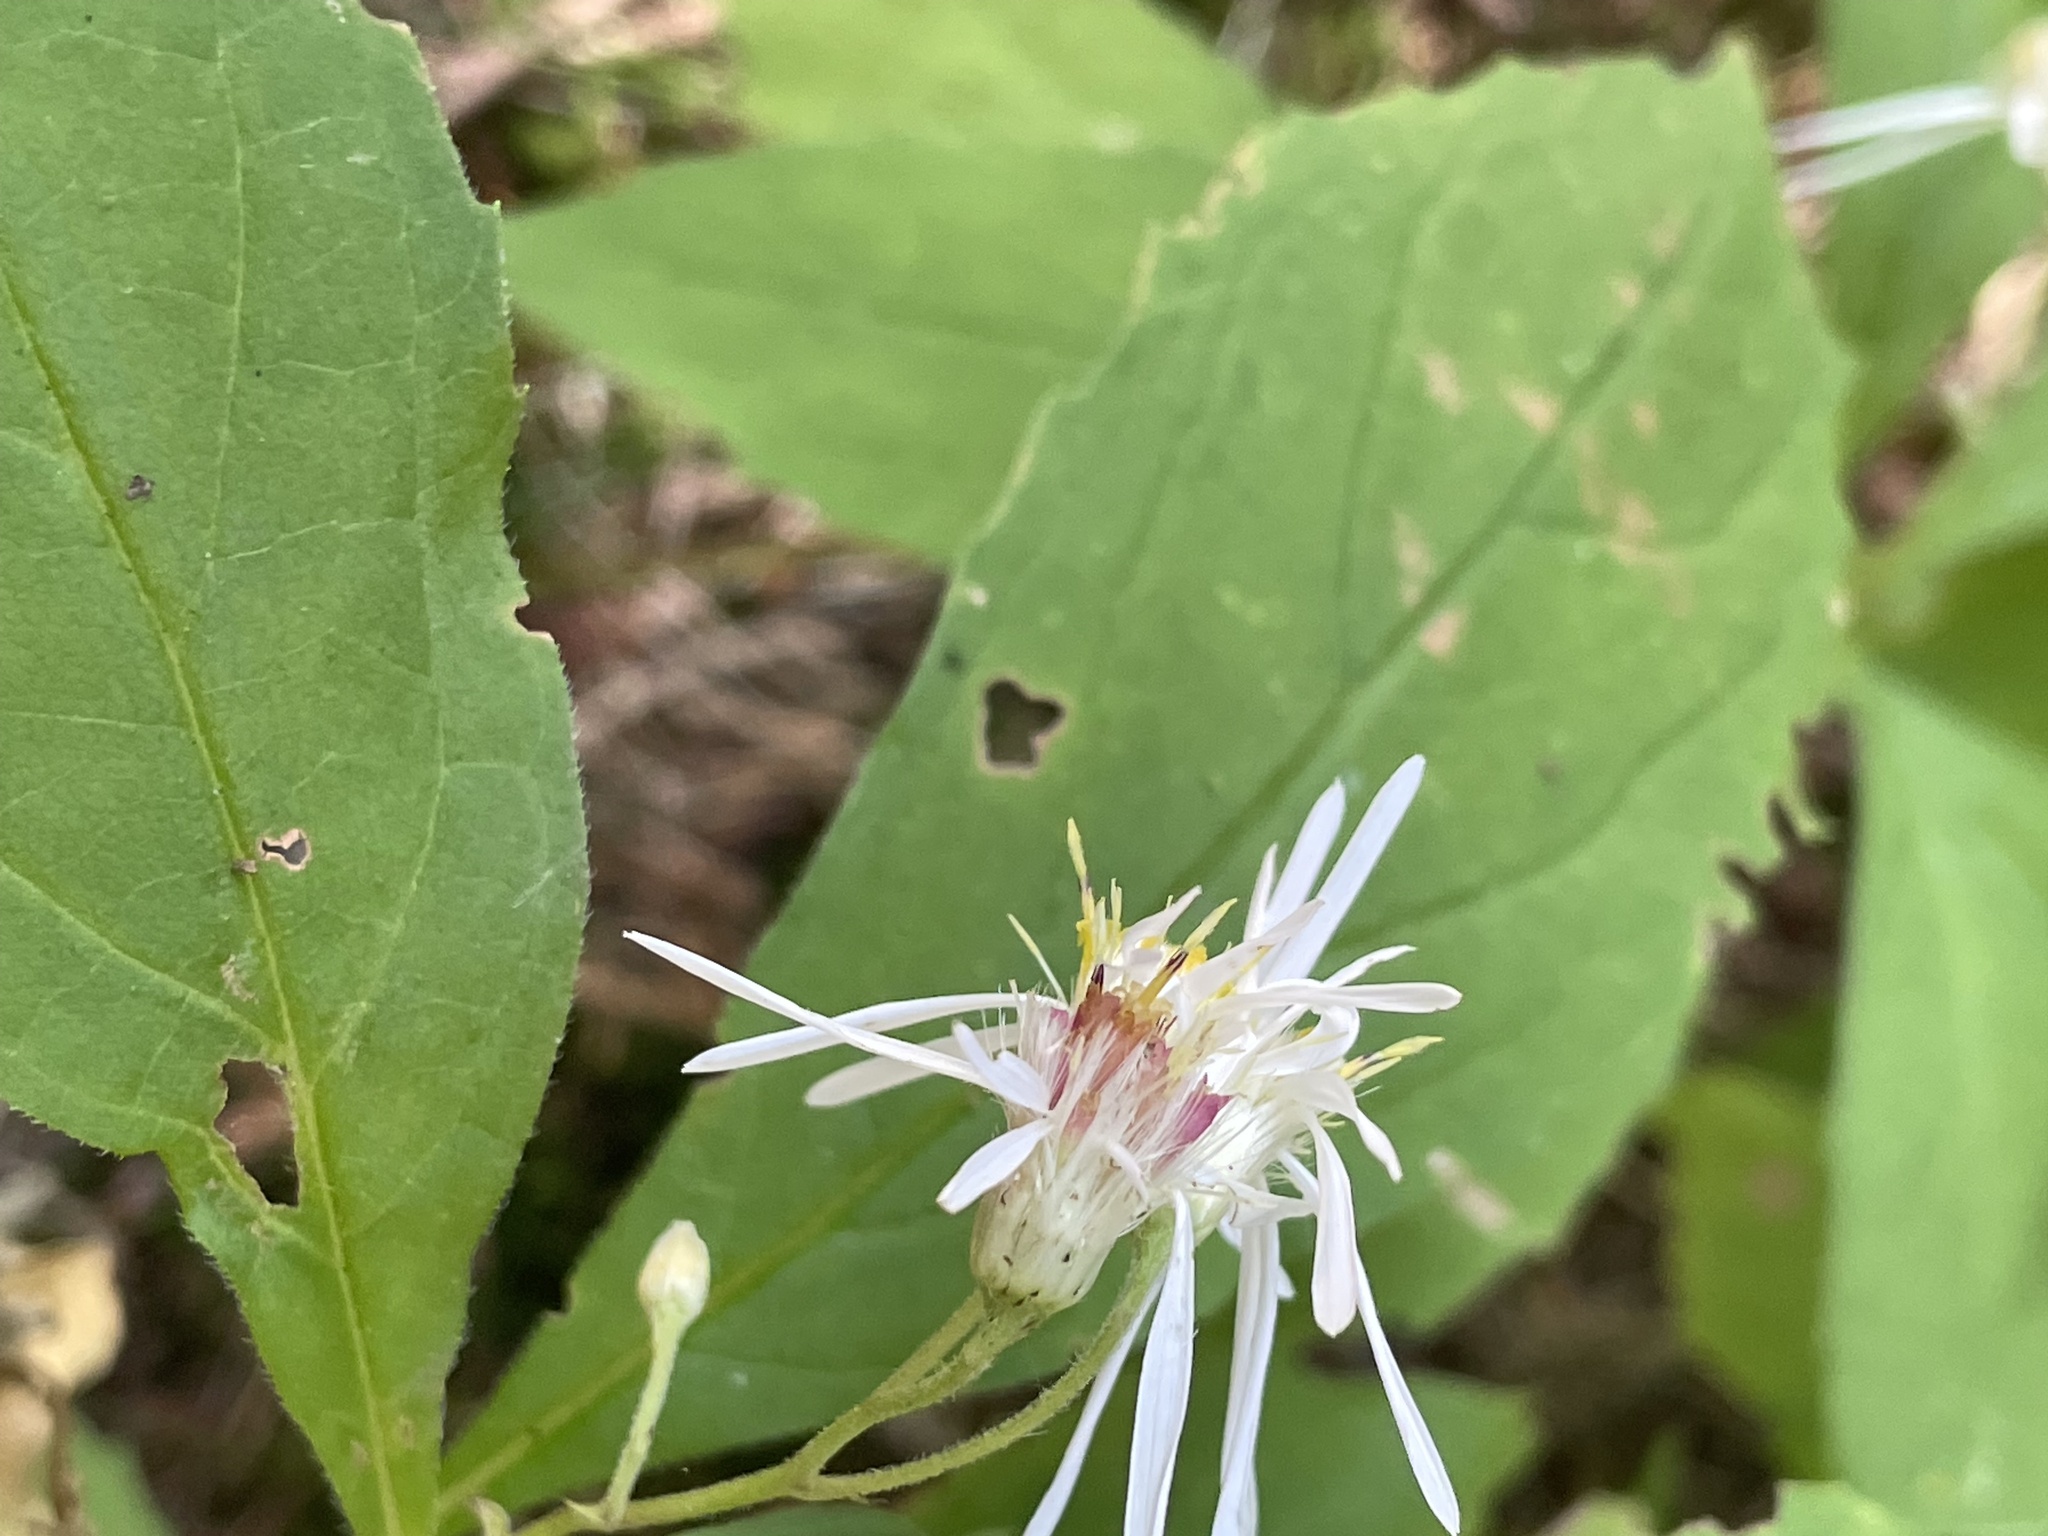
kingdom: Plantae
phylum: Tracheophyta
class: Magnoliopsida
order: Asterales
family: Asteraceae
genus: Oclemena
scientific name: Oclemena acuminata
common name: Mountain aster
